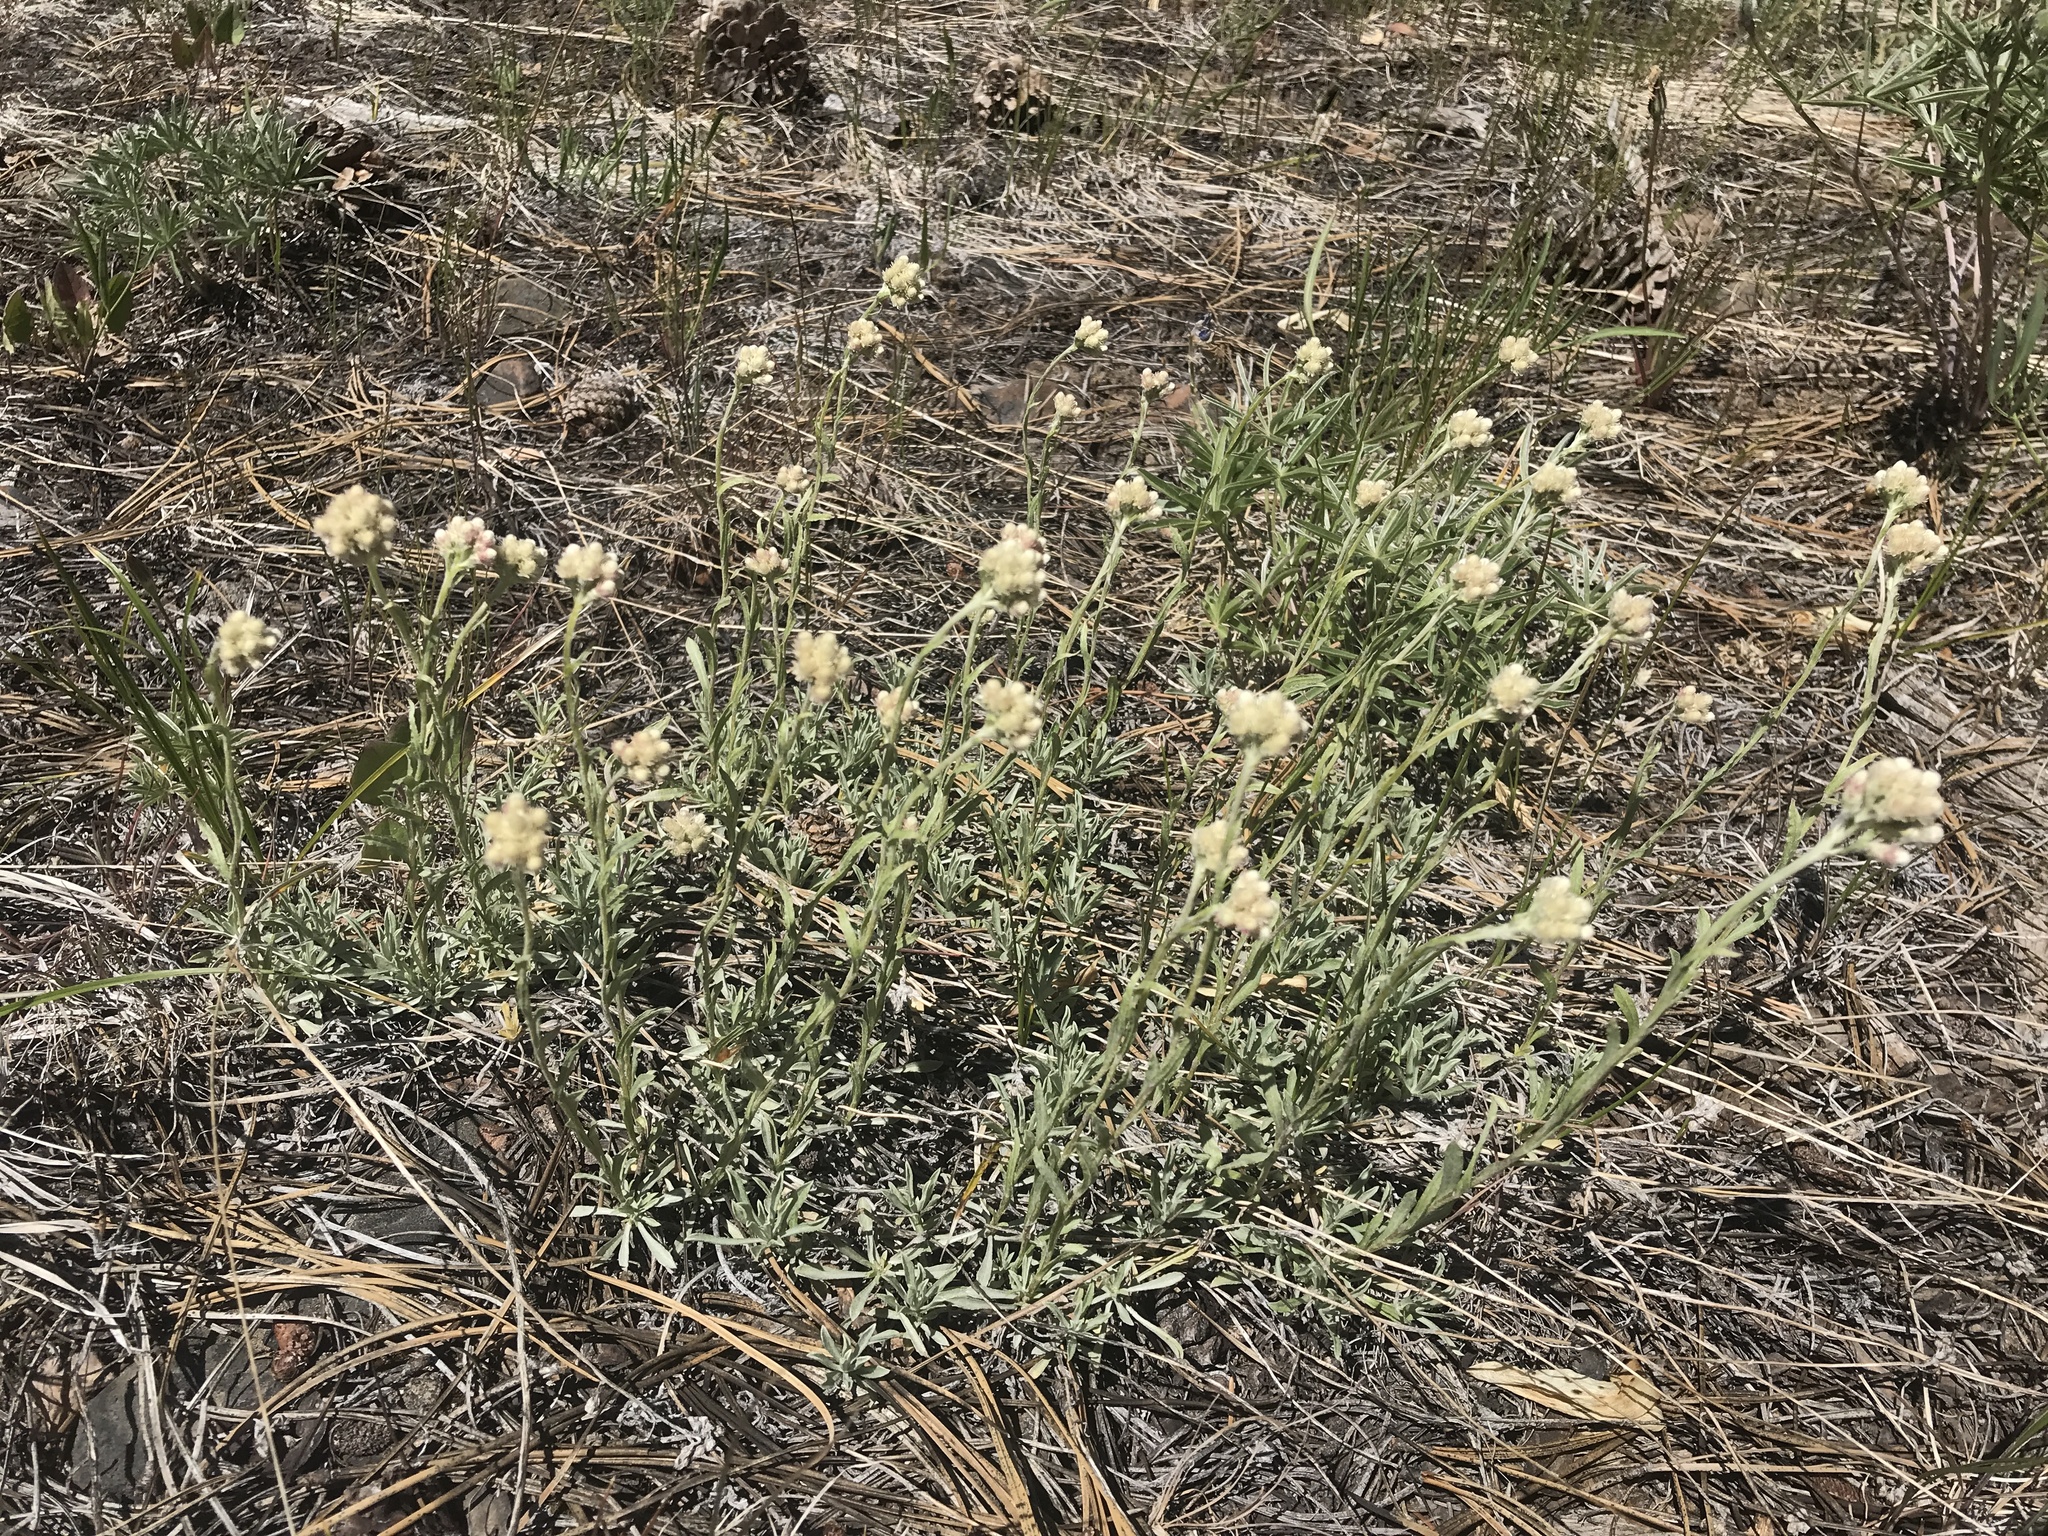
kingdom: Plantae
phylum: Tracheophyta
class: Magnoliopsida
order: Asterales
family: Asteraceae
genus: Antennaria
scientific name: Antennaria rosea
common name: Rosy pussytoes
